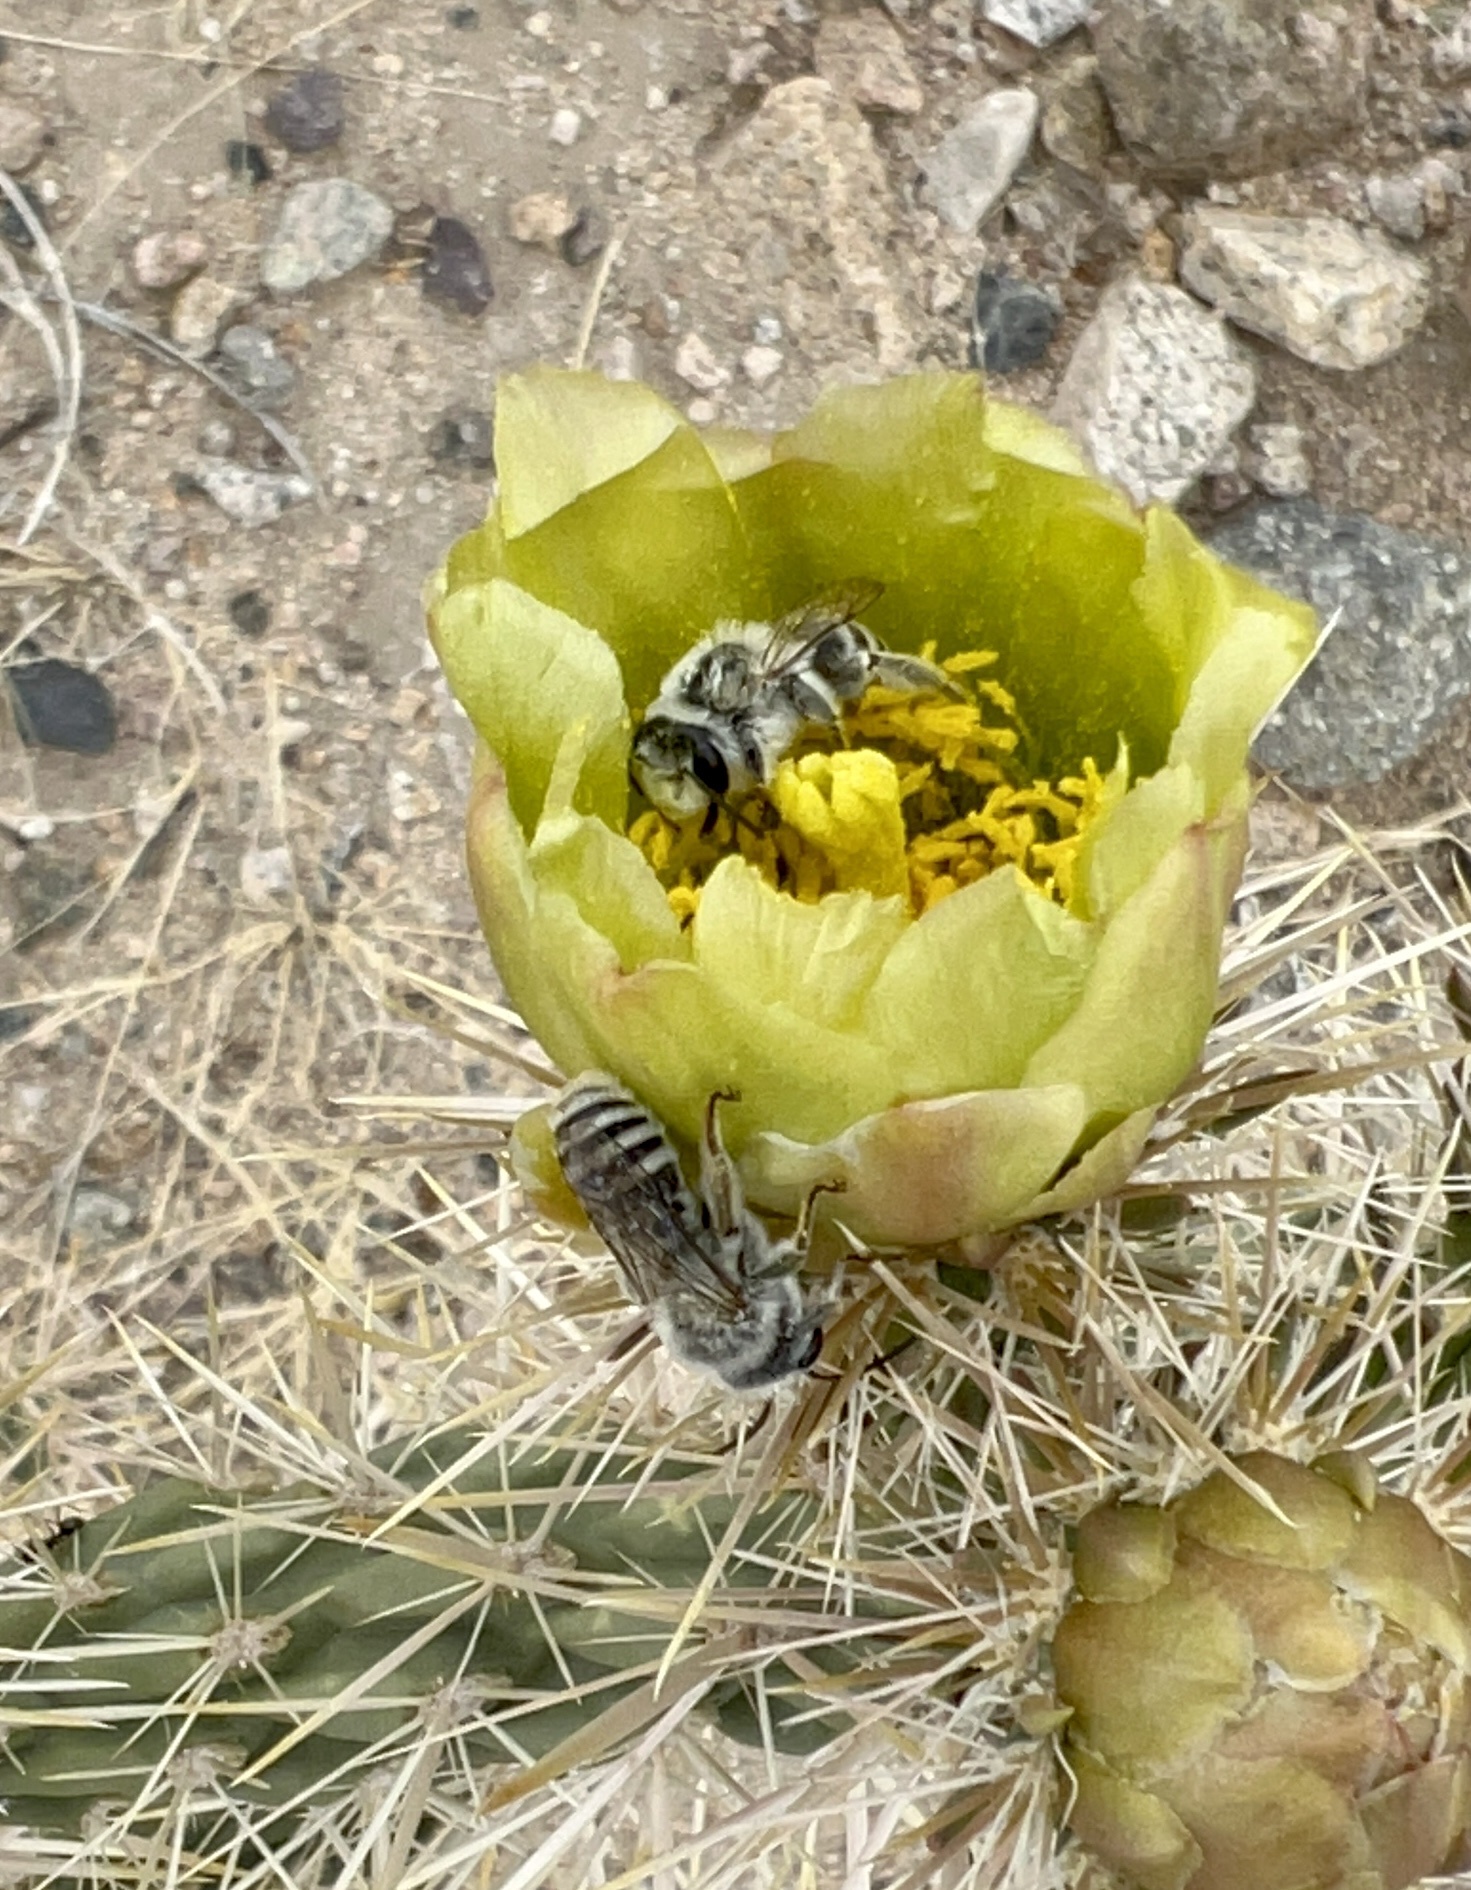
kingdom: Animalia
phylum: Arthropoda
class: Insecta
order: Hymenoptera
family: Andrenidae
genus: Megandrena
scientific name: Megandrena enceliae
